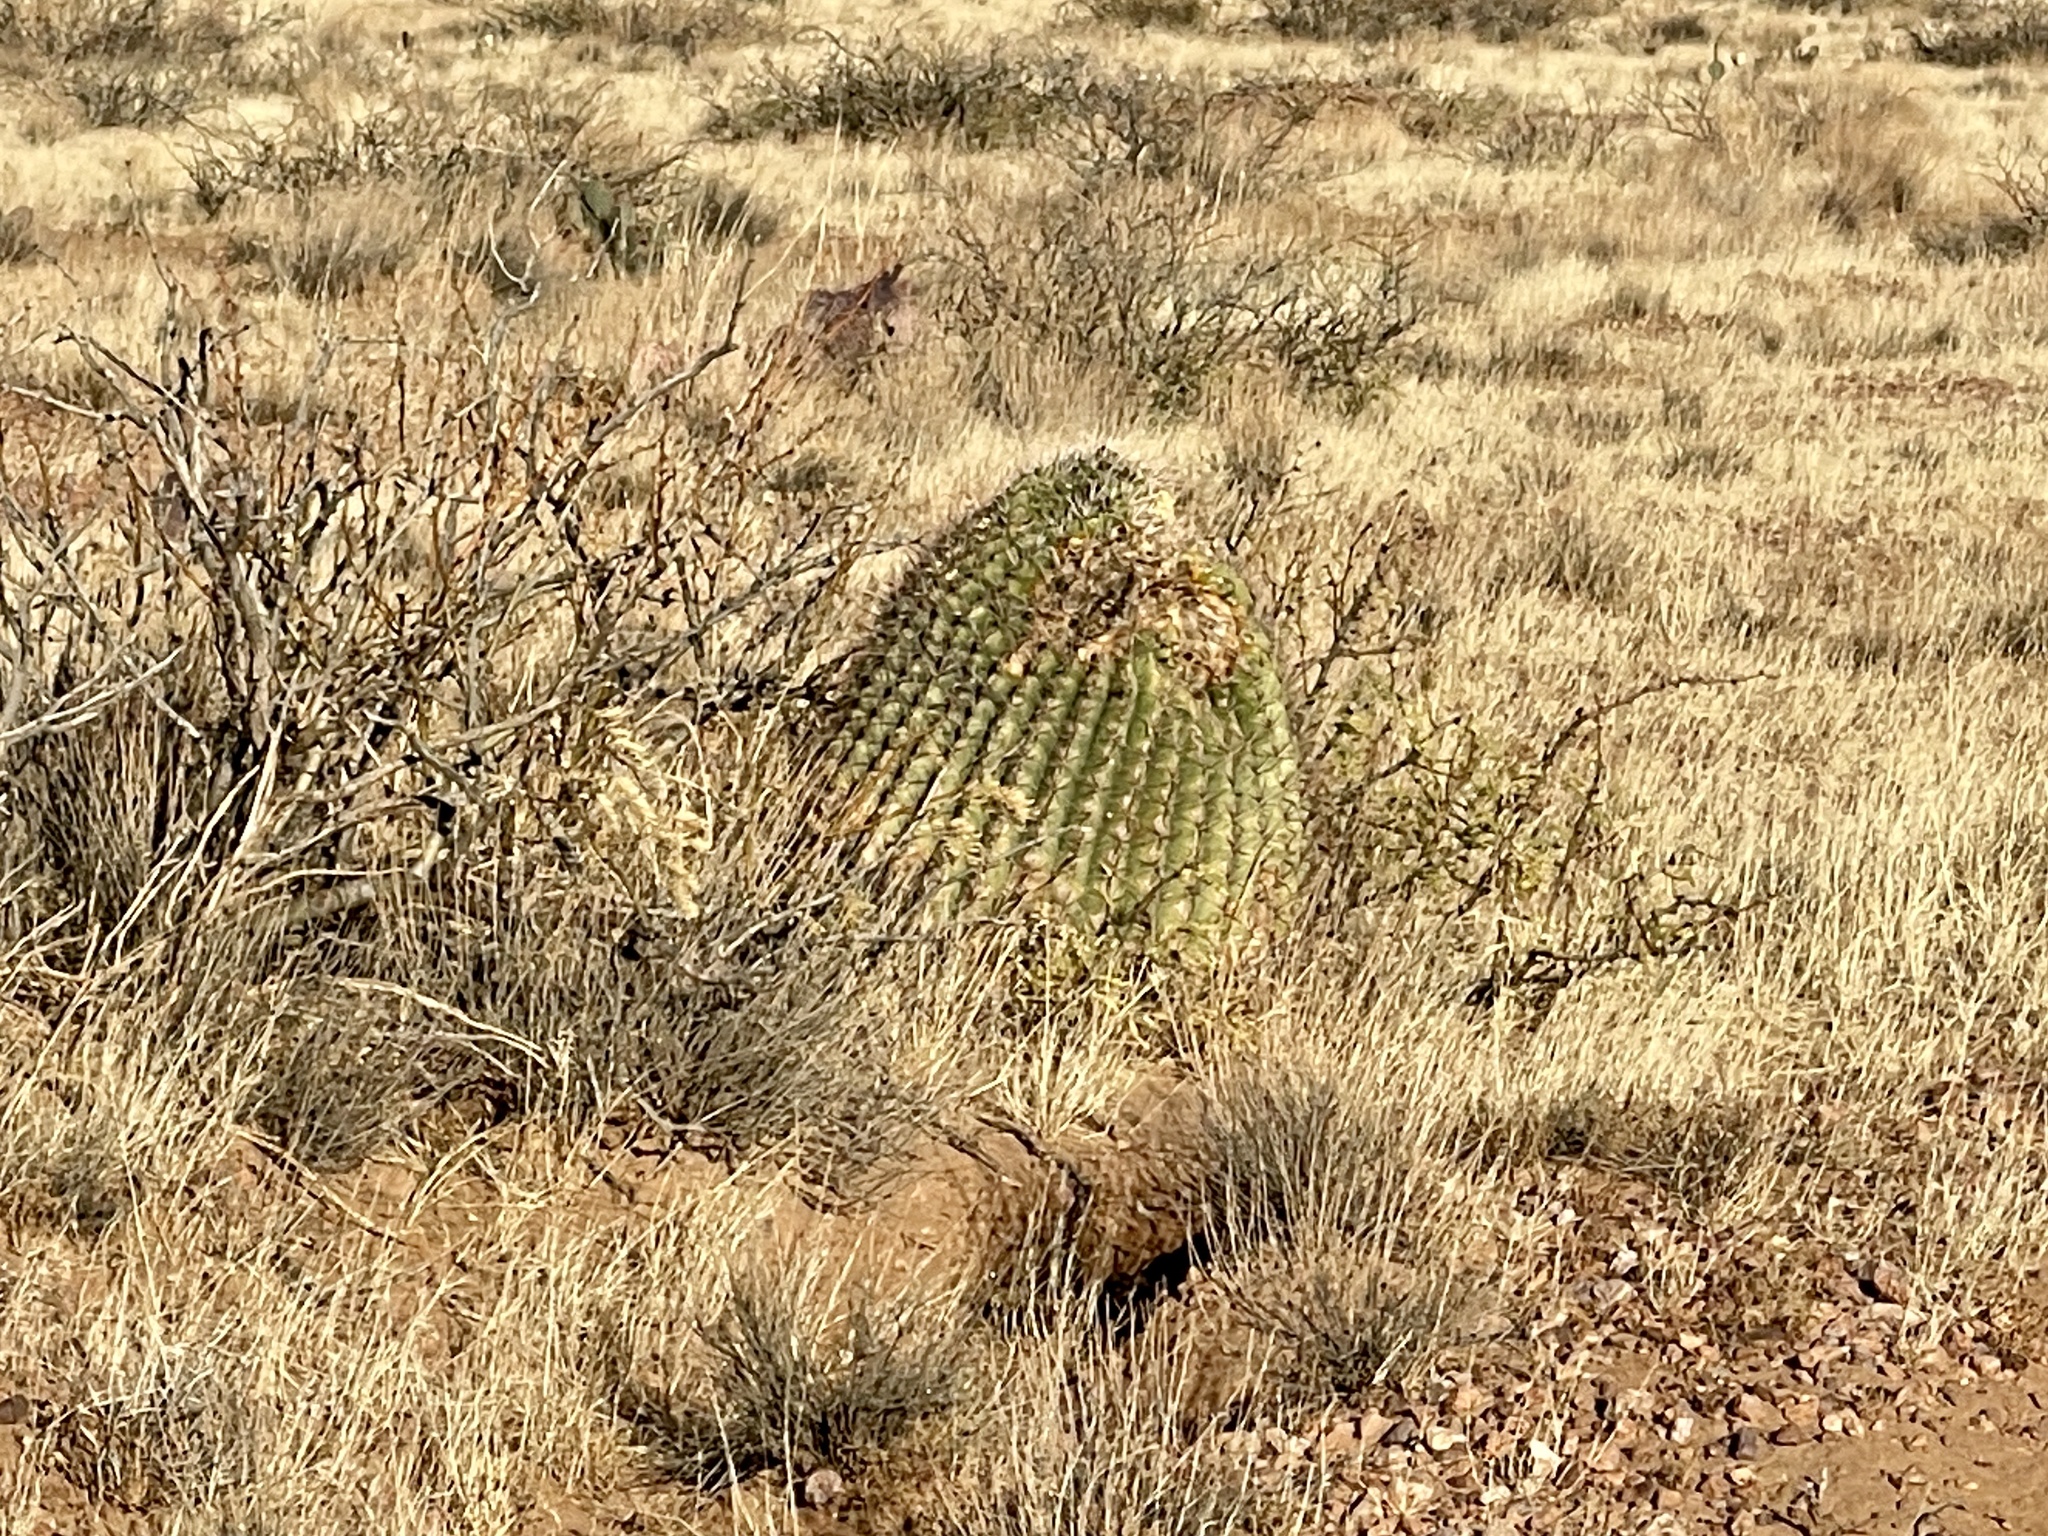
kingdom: Plantae
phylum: Tracheophyta
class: Magnoliopsida
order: Caryophyllales
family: Cactaceae
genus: Ferocactus
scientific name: Ferocactus wislizeni
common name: Candy barrel cactus
